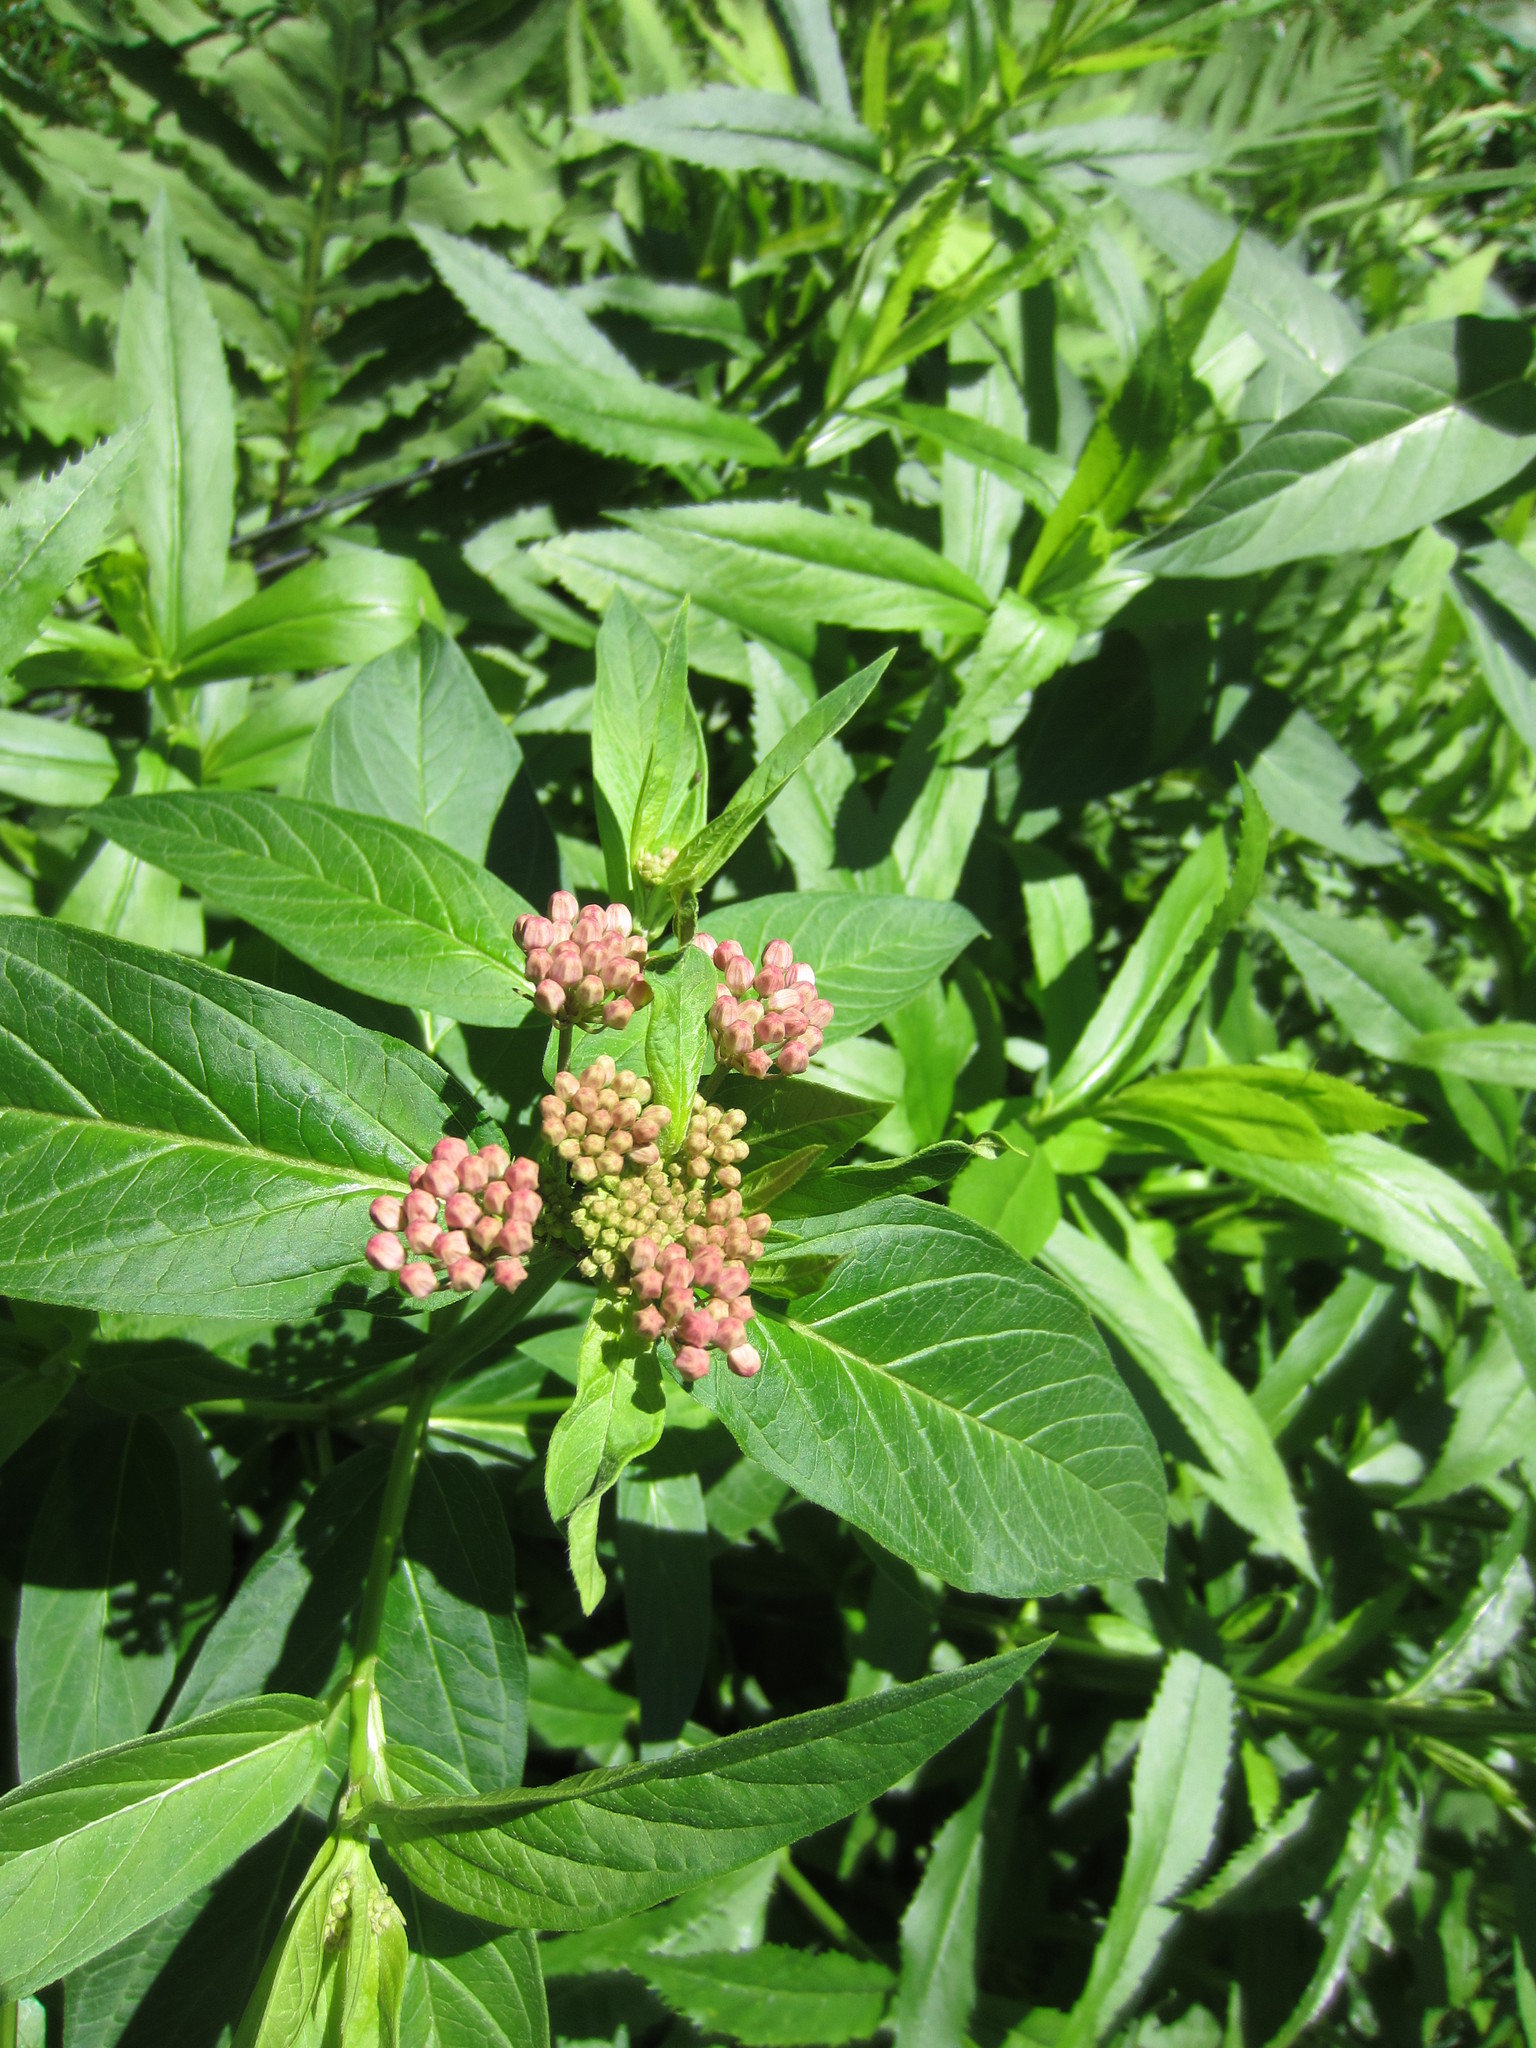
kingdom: Plantae
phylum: Tracheophyta
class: Magnoliopsida
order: Gentianales
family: Apocynaceae
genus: Asclepias
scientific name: Asclepias incarnata
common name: Swamp milkweed
